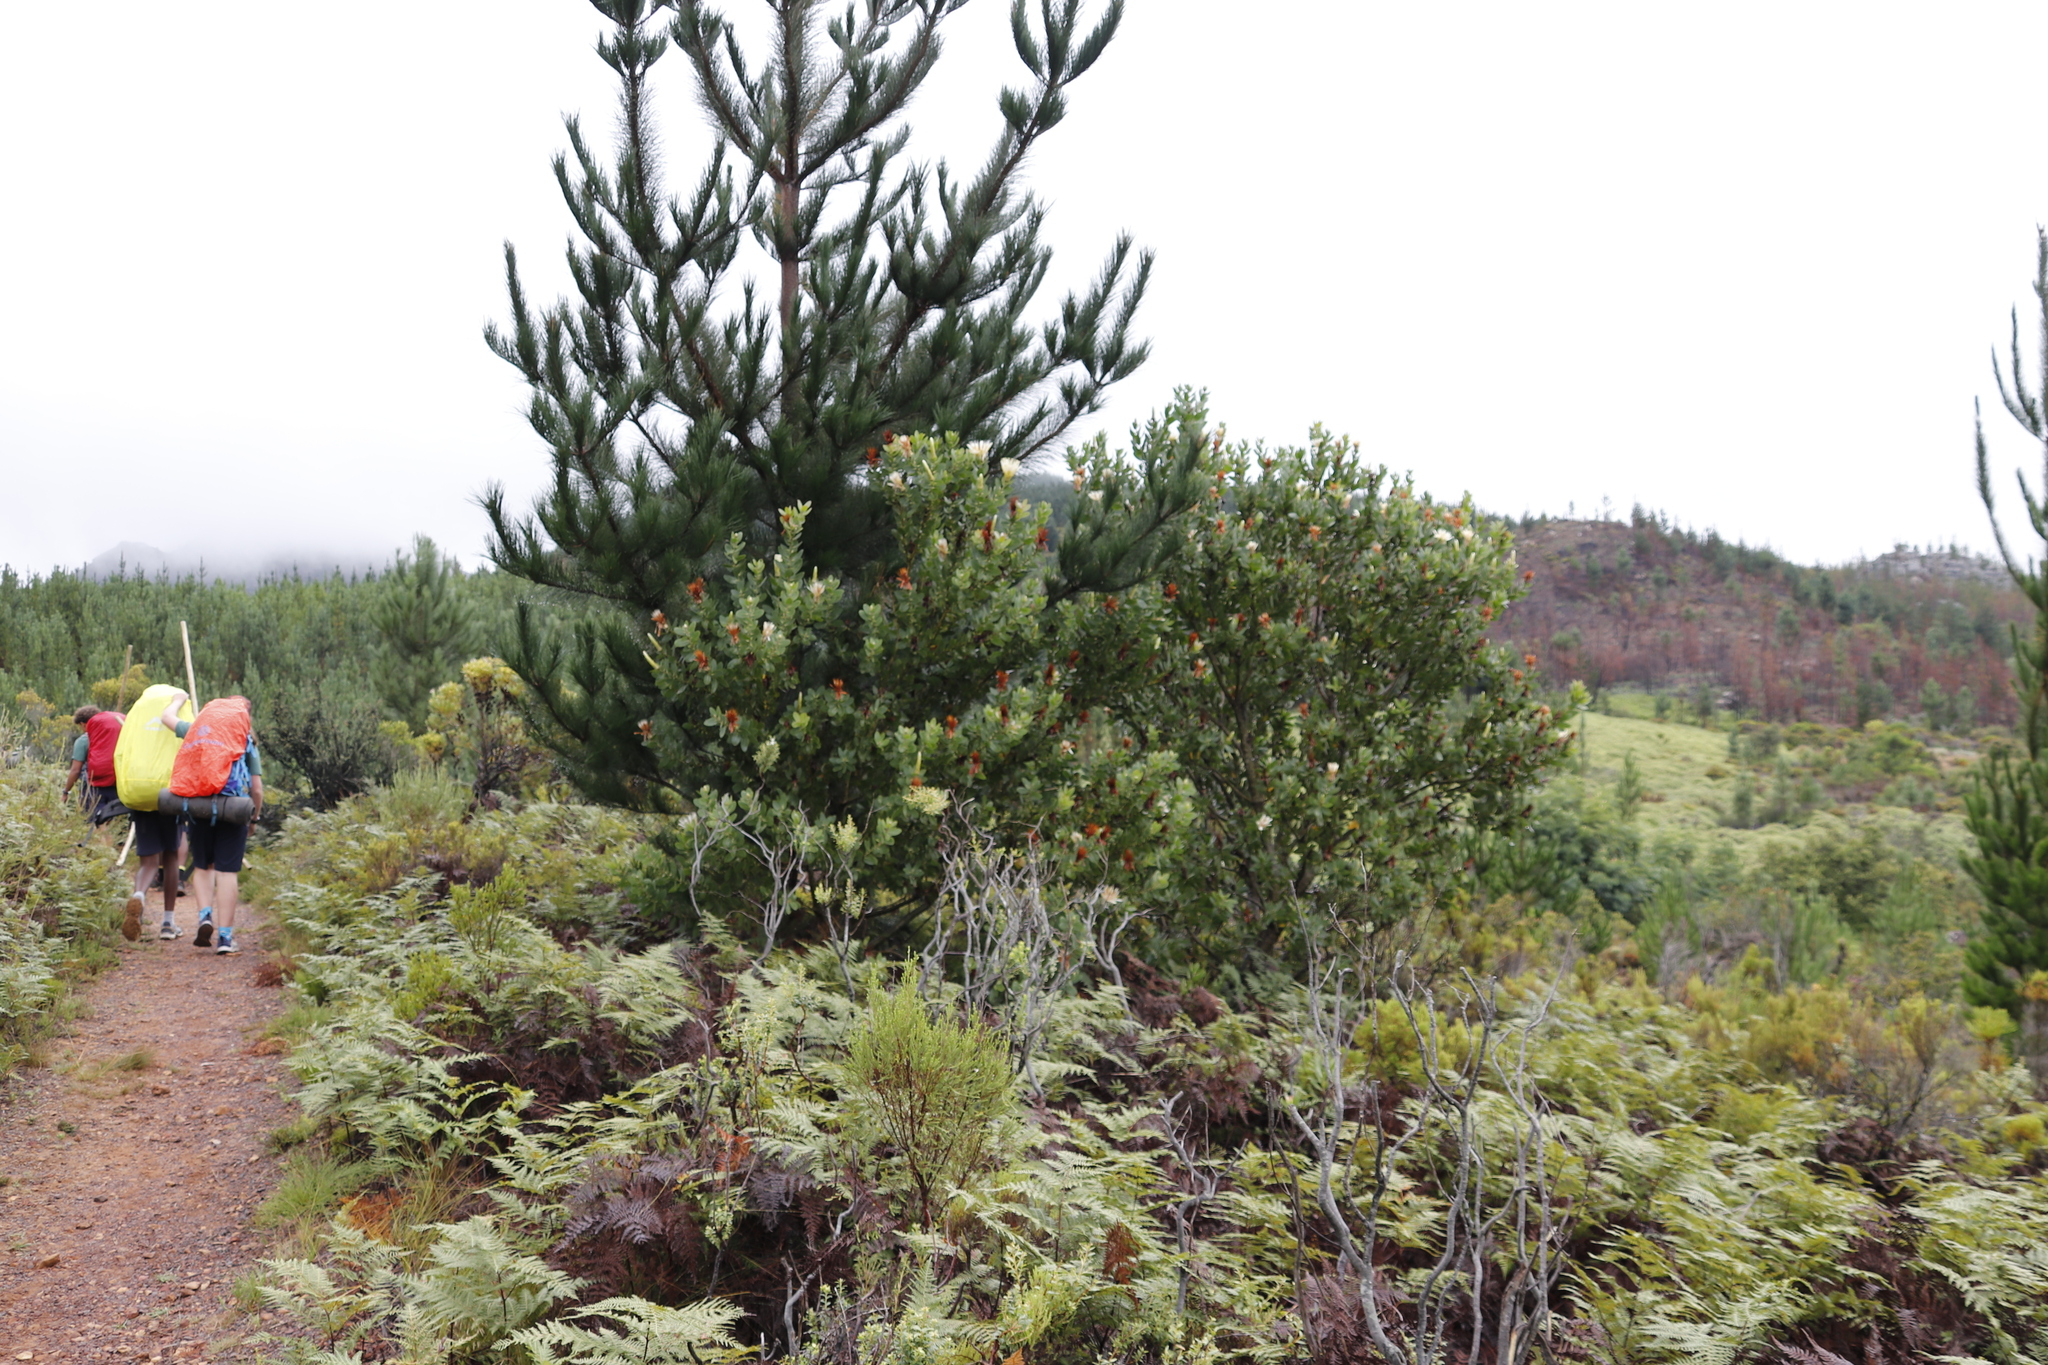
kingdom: Plantae
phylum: Tracheophyta
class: Magnoliopsida
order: Proteales
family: Proteaceae
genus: Protea
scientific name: Protea mundii
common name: Forest sugarbush
